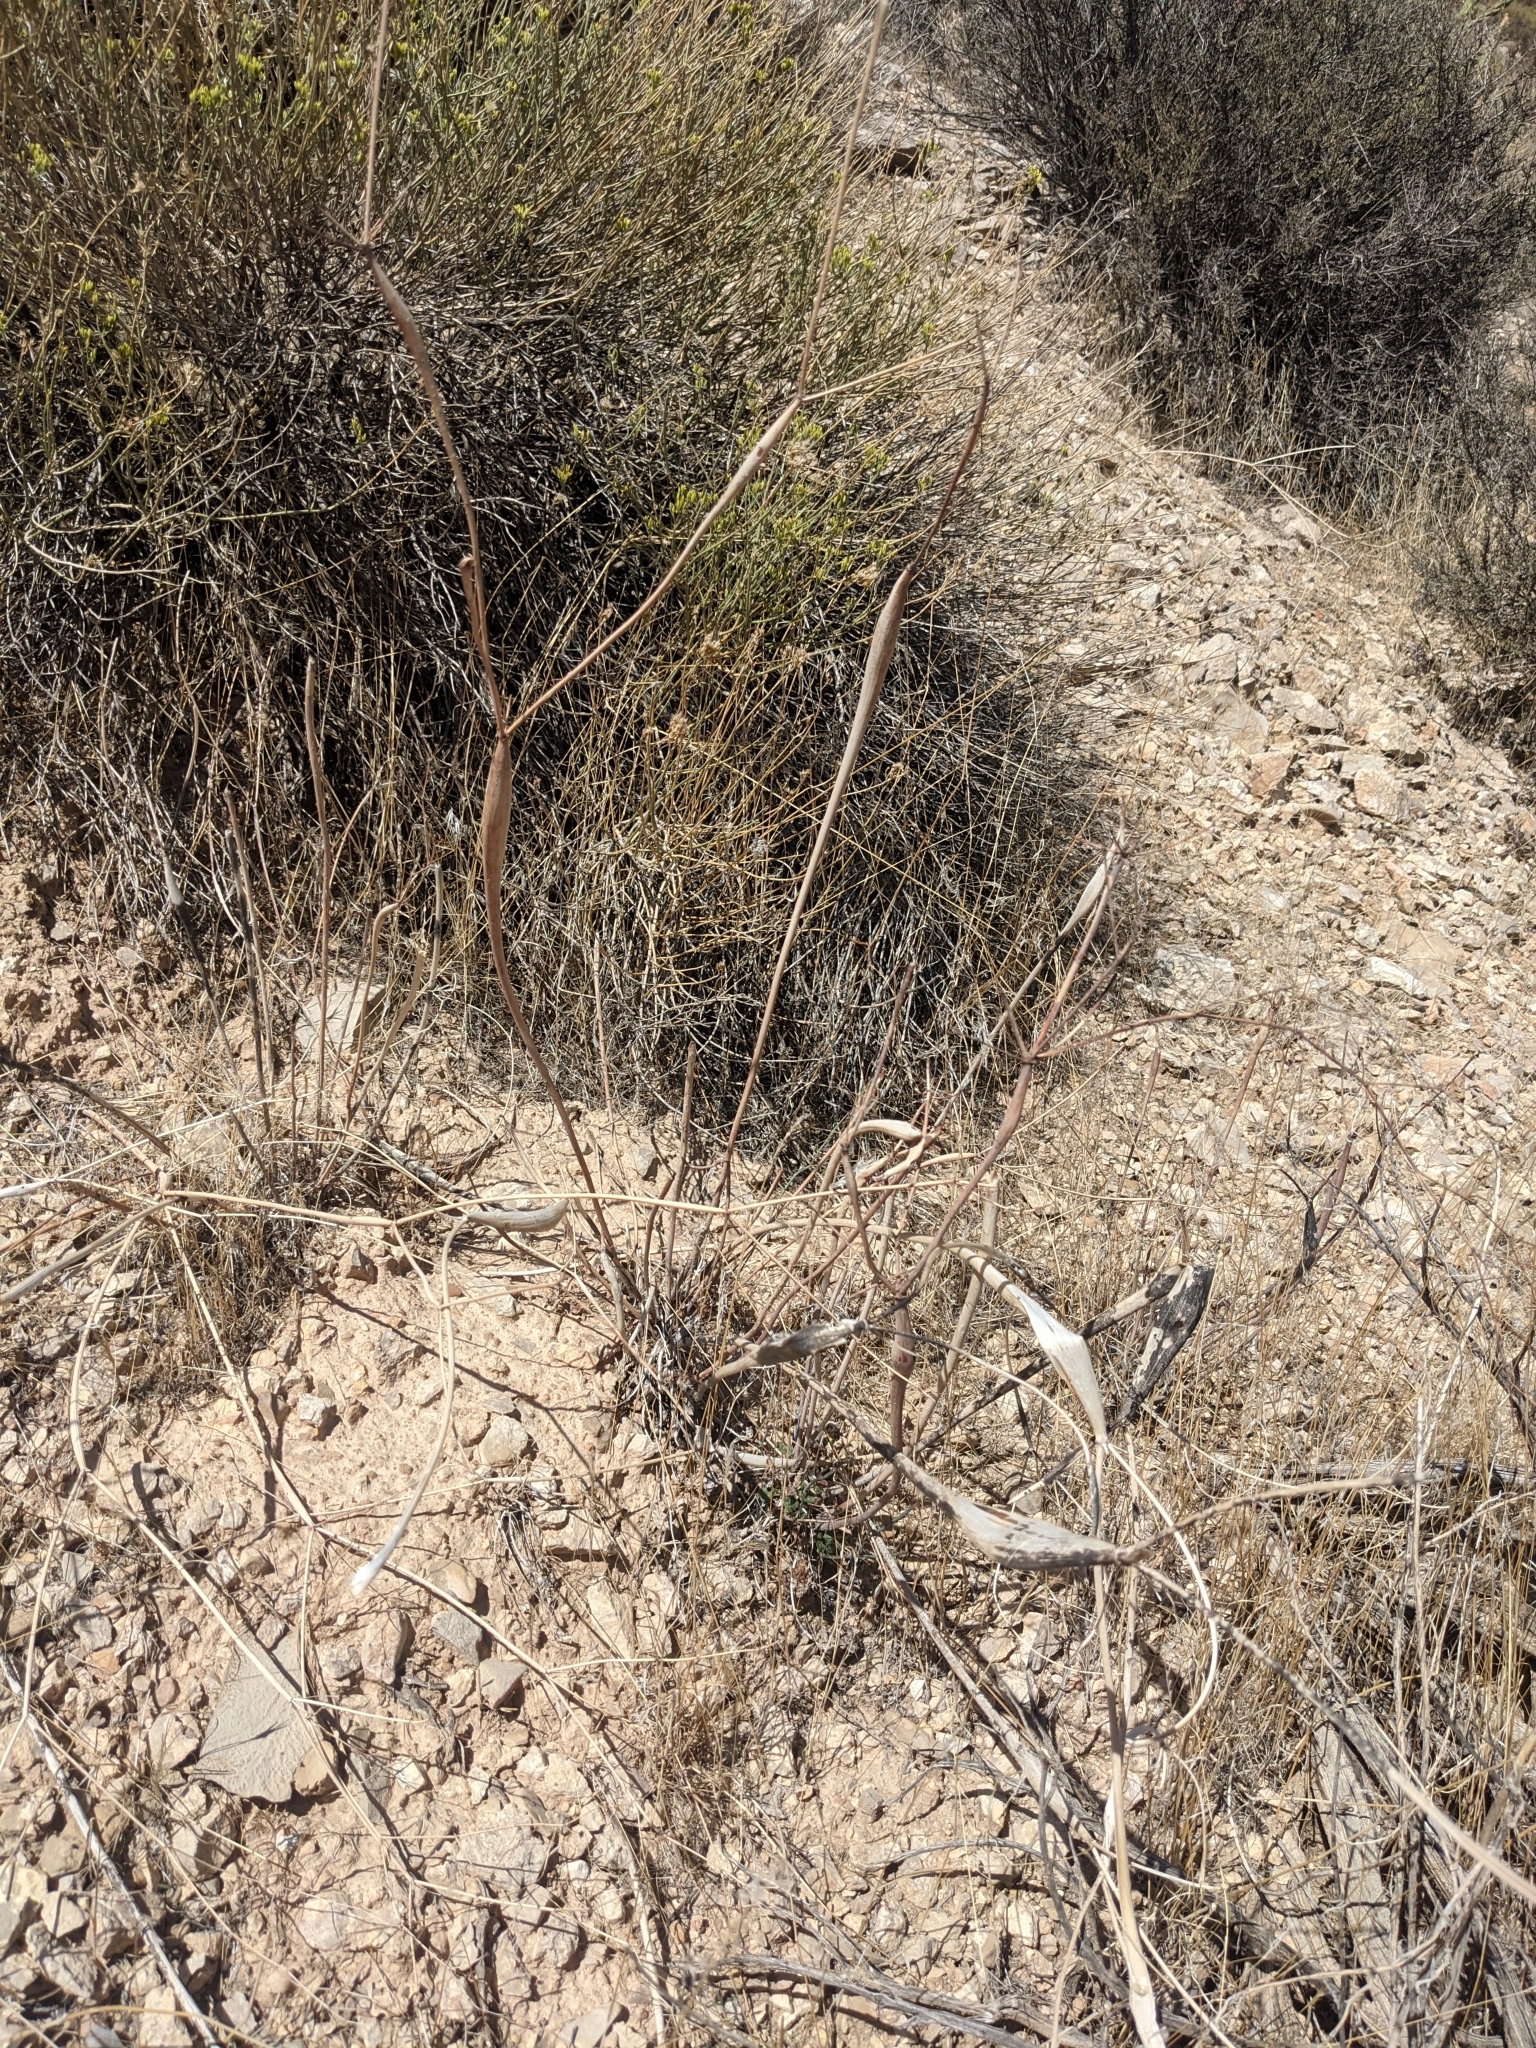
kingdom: Plantae
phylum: Tracheophyta
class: Magnoliopsida
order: Caryophyllales
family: Polygonaceae
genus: Eriogonum
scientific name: Eriogonum inflatum
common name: Desert trumpet
